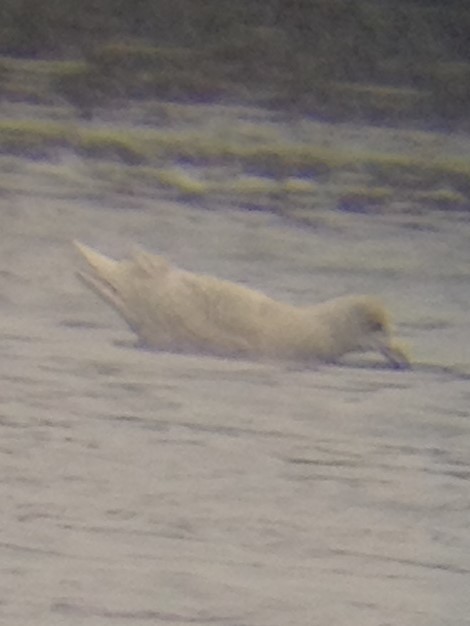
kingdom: Animalia
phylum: Chordata
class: Aves
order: Charadriiformes
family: Laridae
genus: Larus
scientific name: Larus glaucoides
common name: Iceland gull
